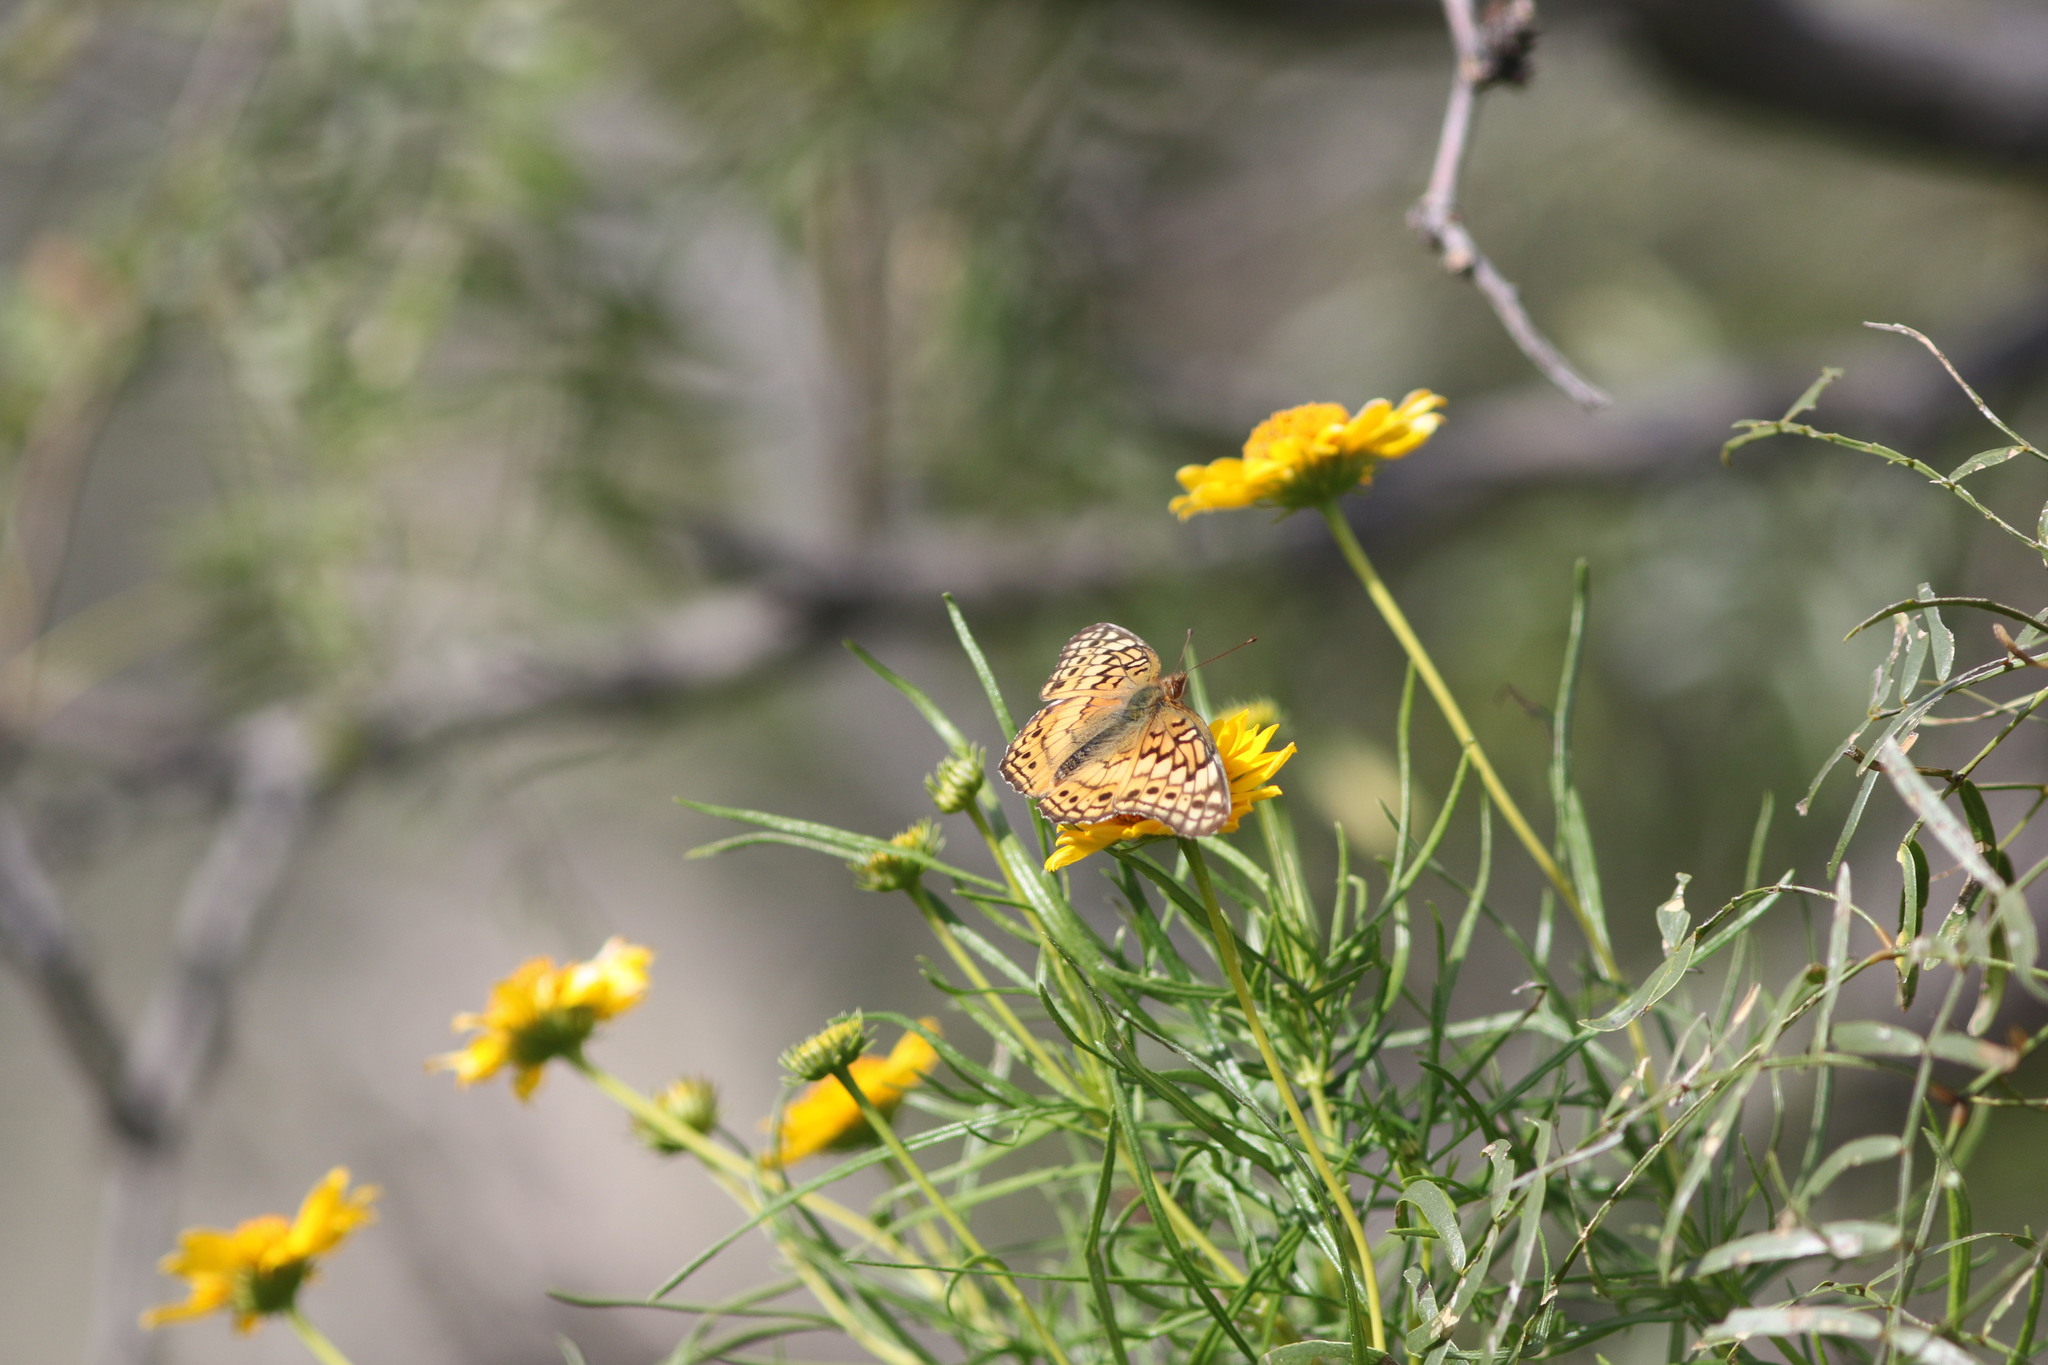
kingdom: Animalia
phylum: Arthropoda
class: Insecta
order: Lepidoptera
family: Nymphalidae
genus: Euptoieta
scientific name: Euptoieta claudia
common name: Variegated fritillary
